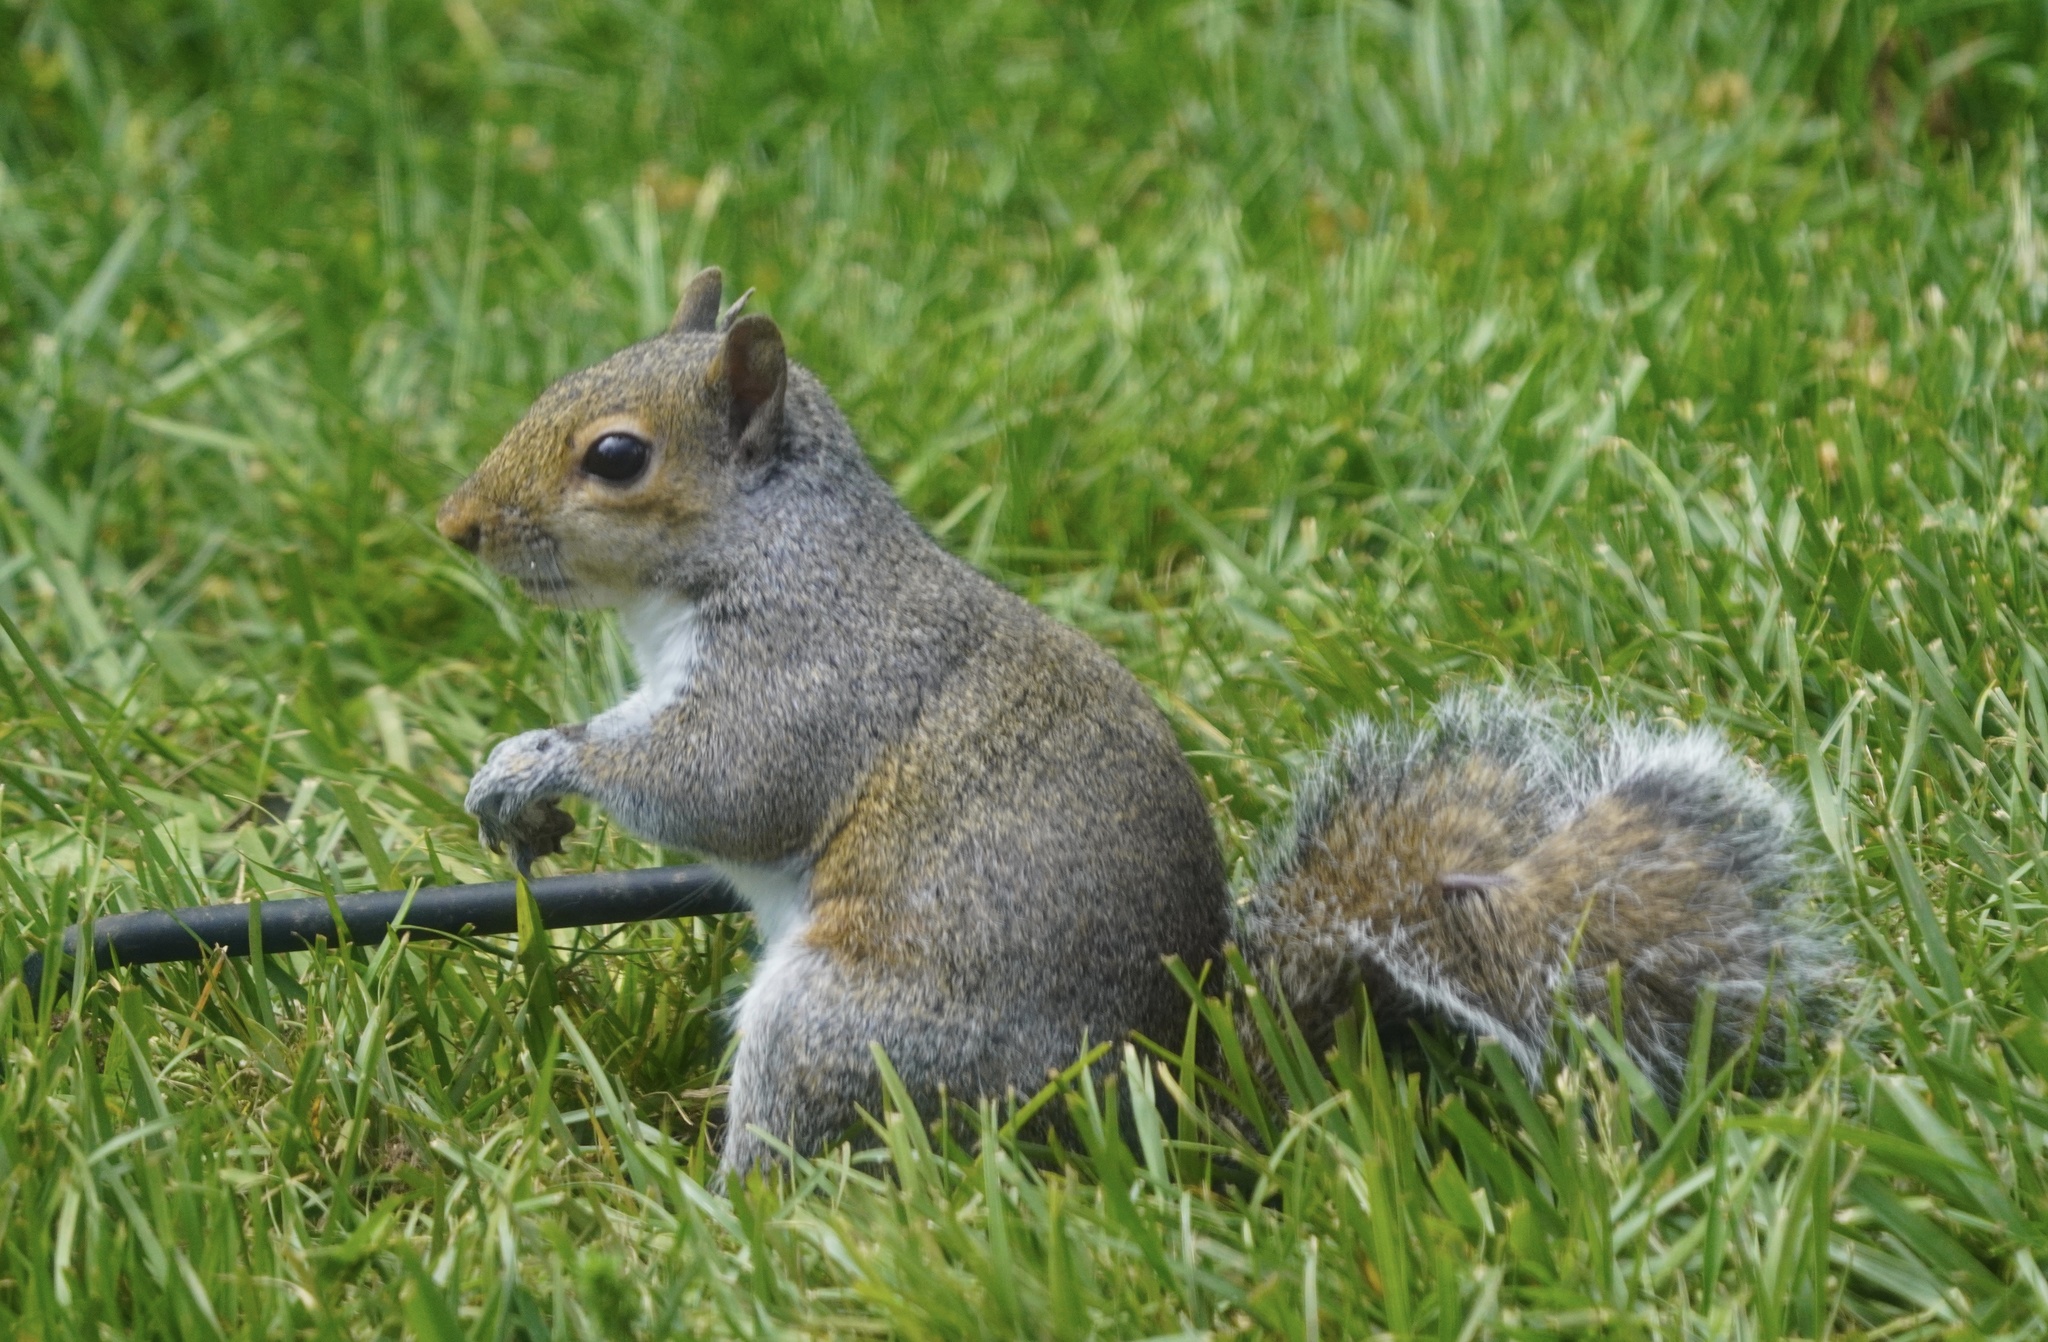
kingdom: Animalia
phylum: Chordata
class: Mammalia
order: Rodentia
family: Sciuridae
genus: Sciurus
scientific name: Sciurus carolinensis
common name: Eastern gray squirrel
